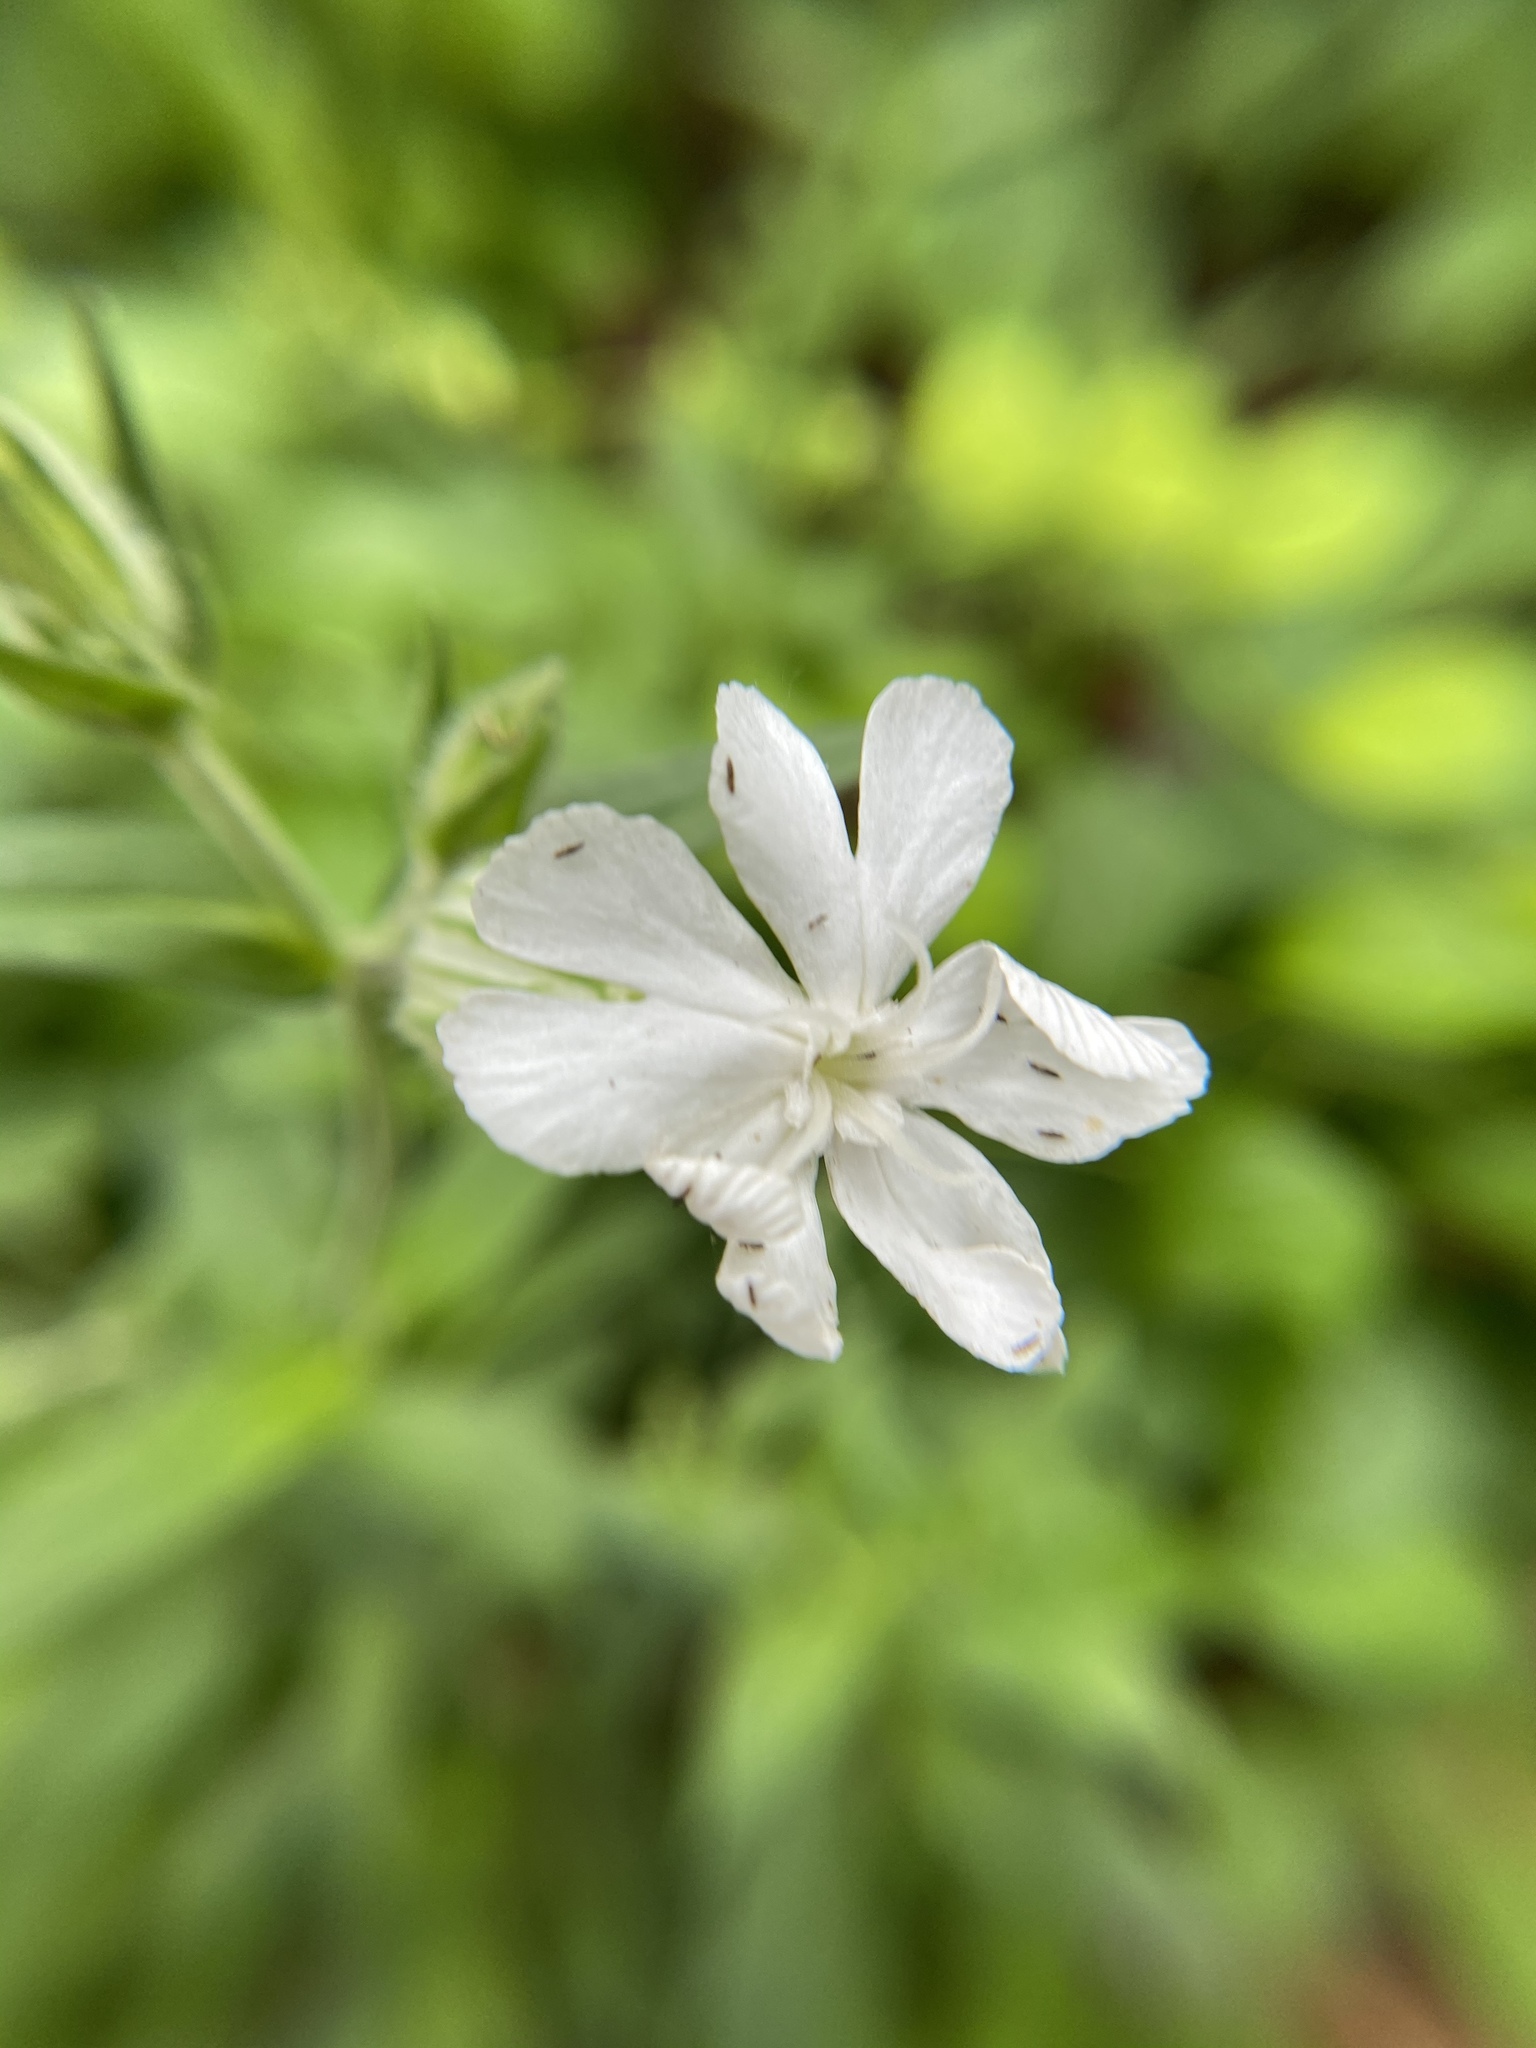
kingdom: Plantae
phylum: Tracheophyta
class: Magnoliopsida
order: Caryophyllales
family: Caryophyllaceae
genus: Silene
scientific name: Silene latifolia
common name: White campion
